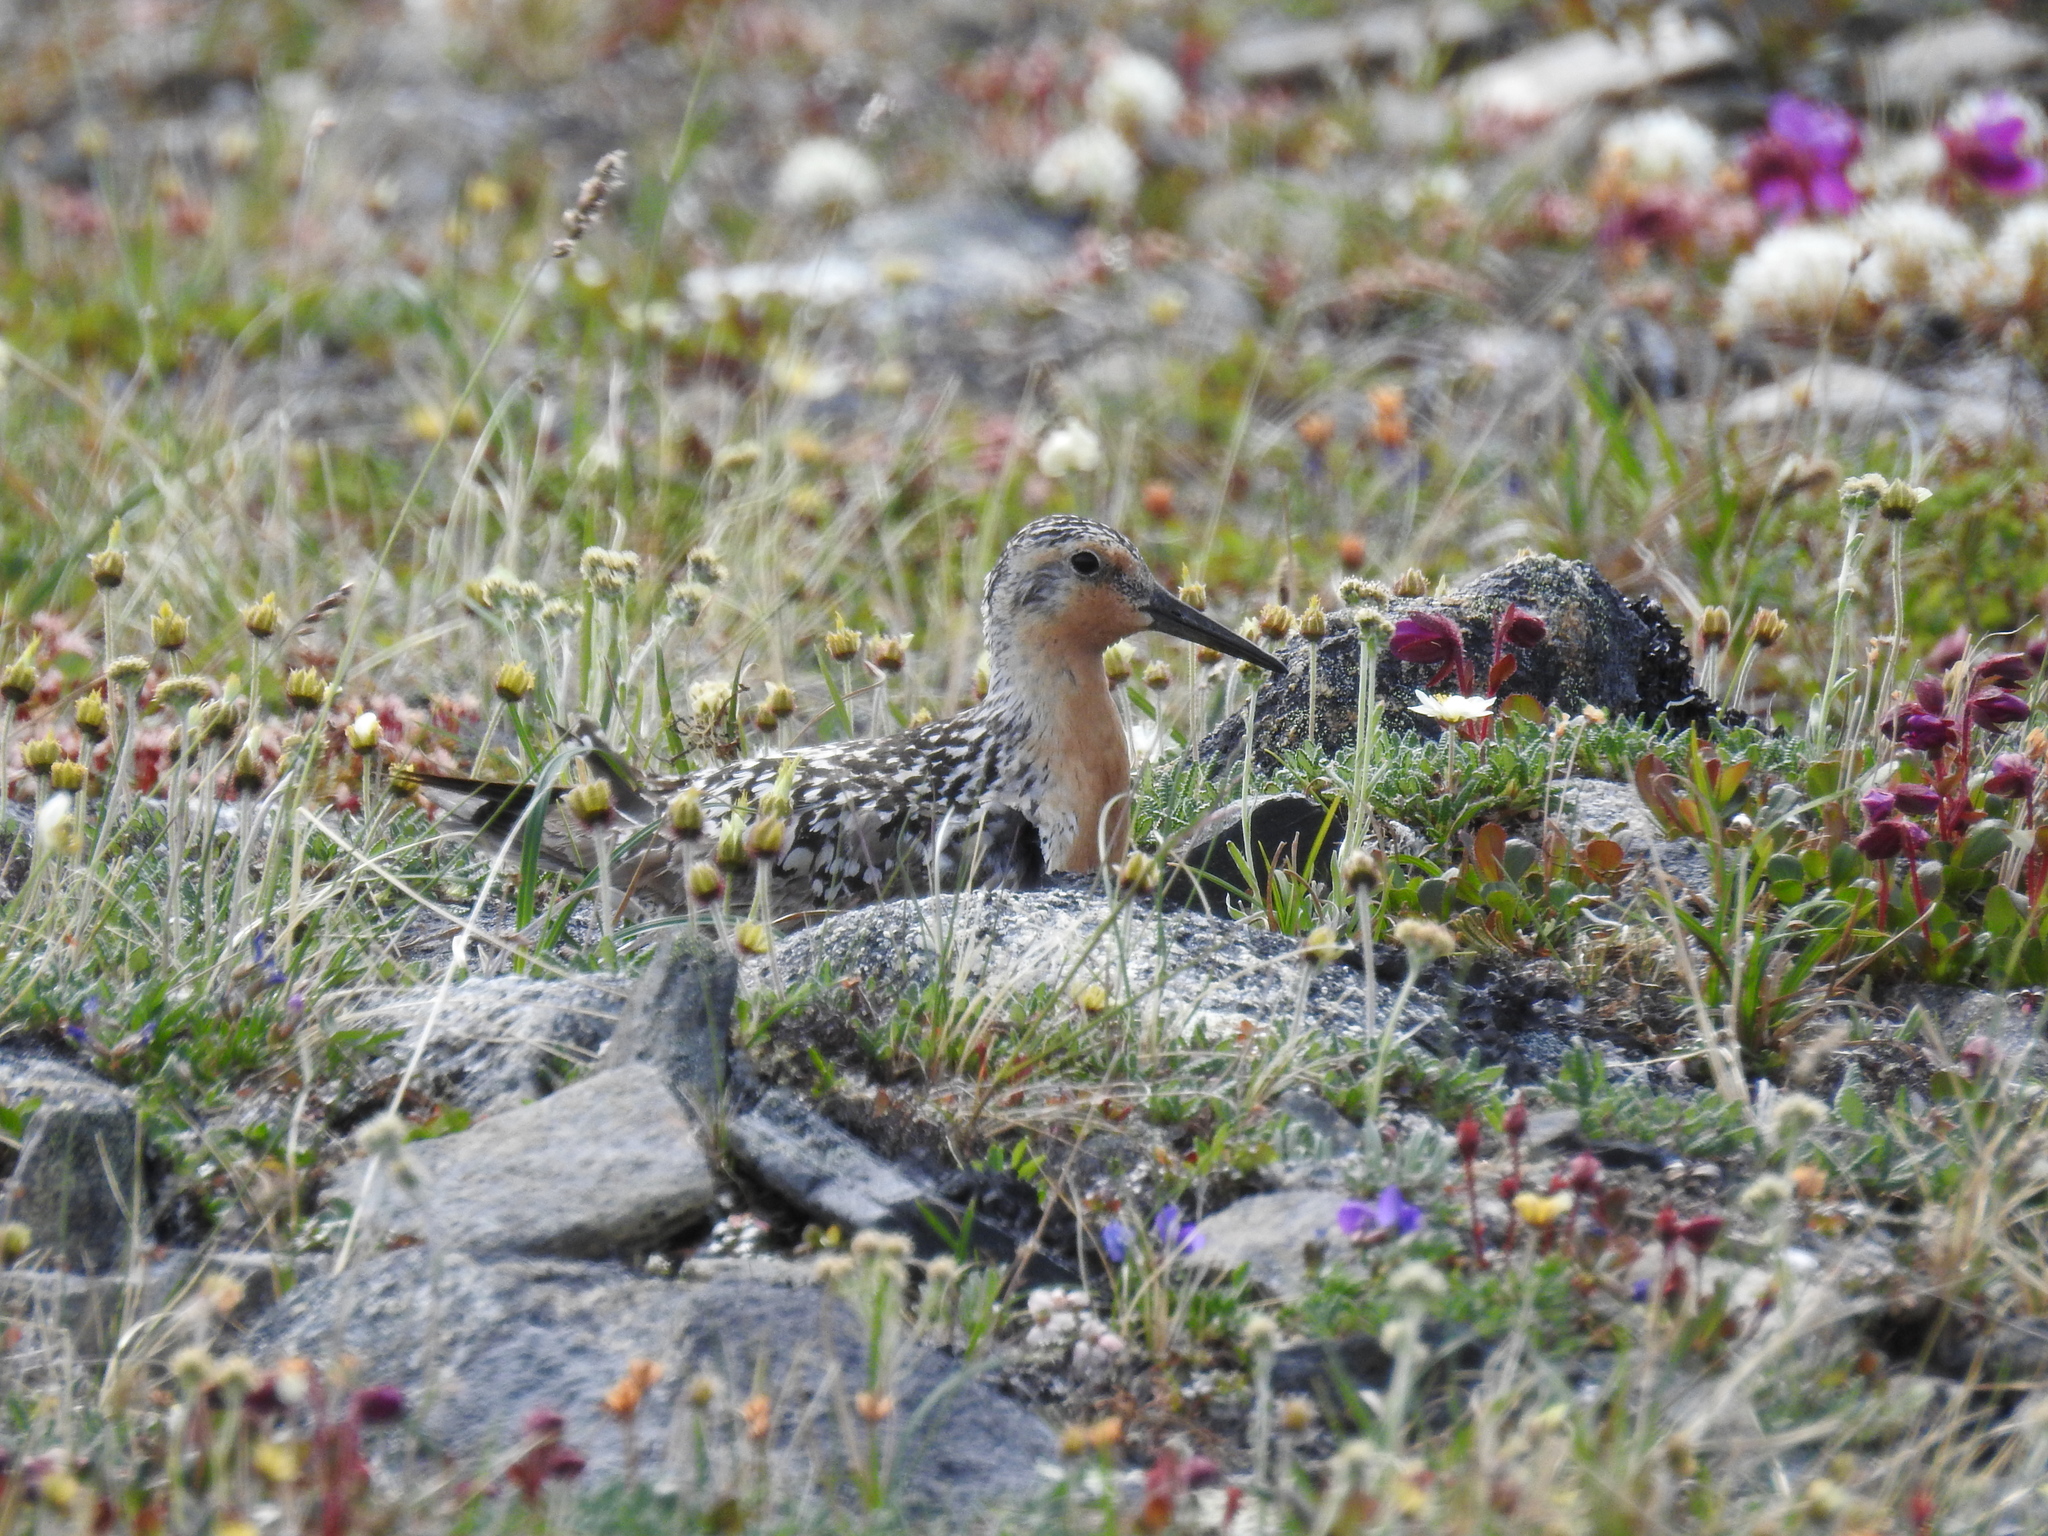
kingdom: Animalia
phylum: Chordata
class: Aves
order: Charadriiformes
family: Scolopacidae
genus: Calidris
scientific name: Calidris canutus
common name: Red knot
